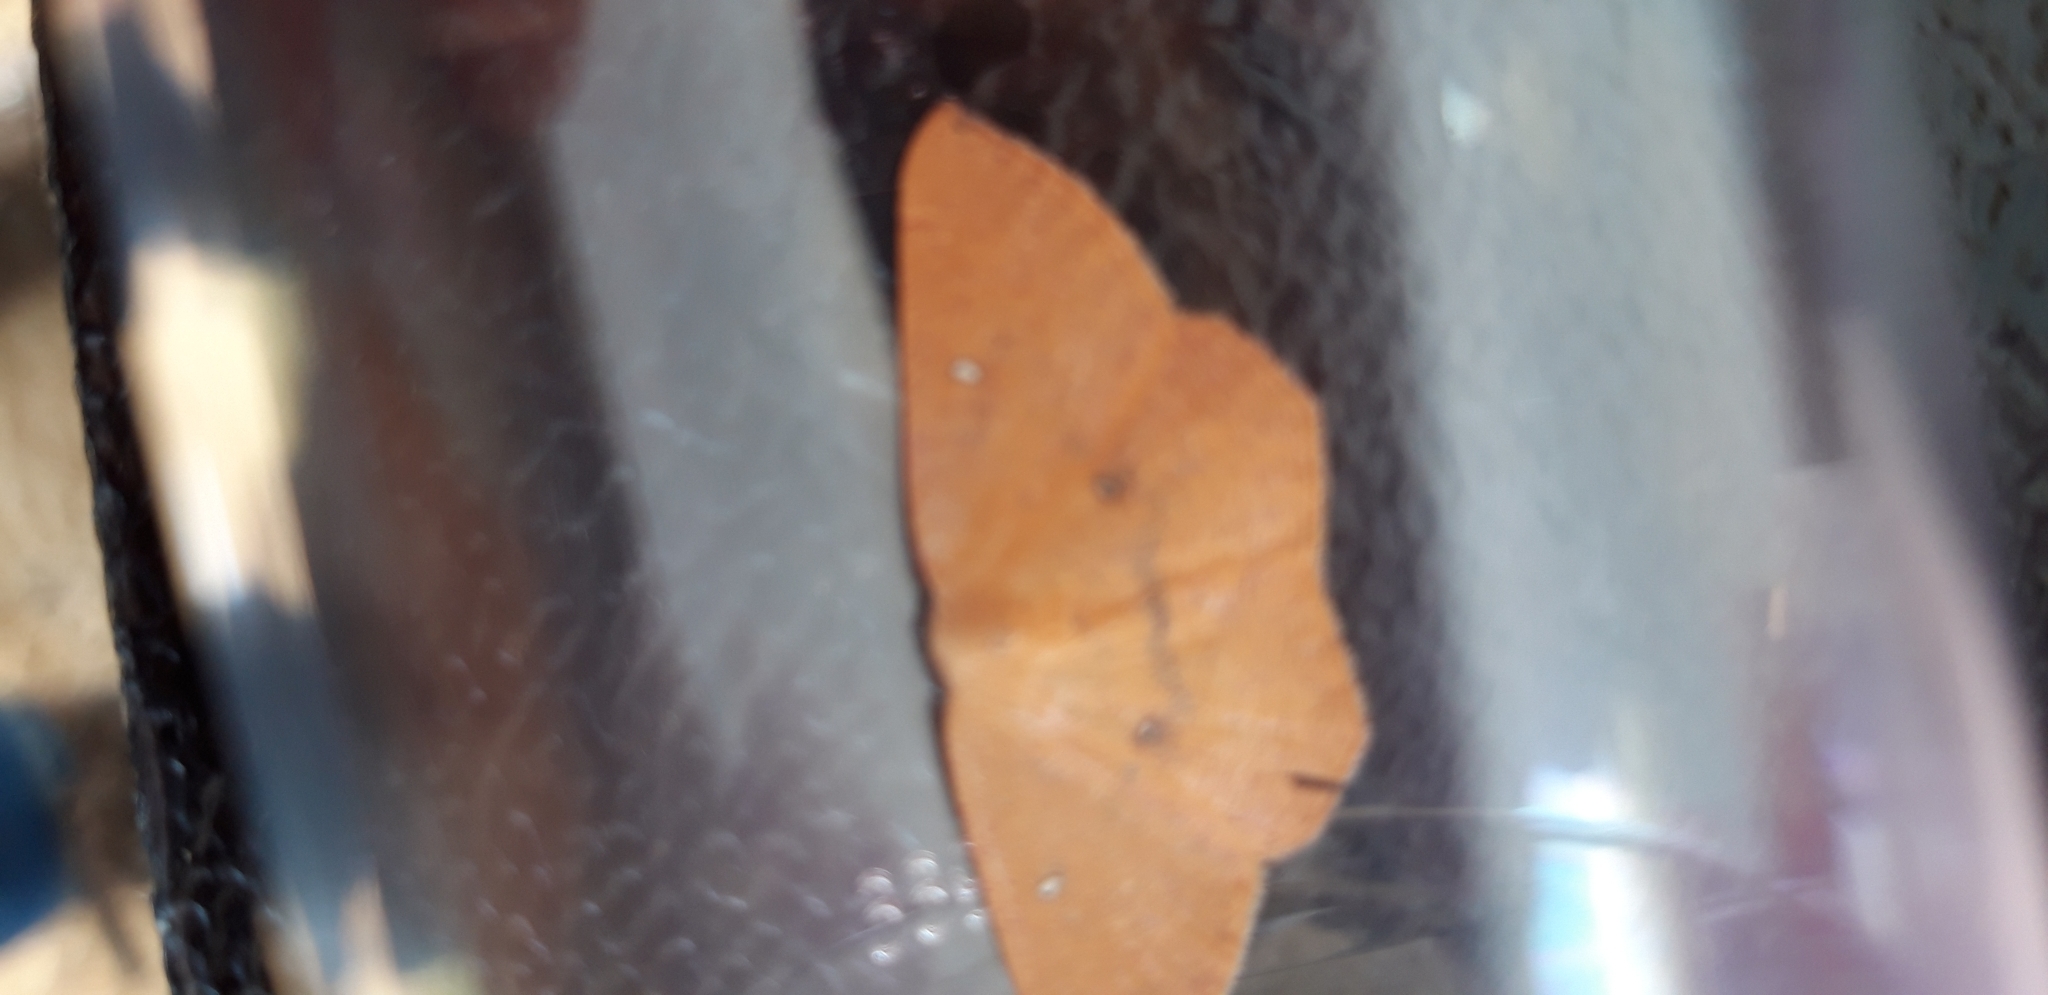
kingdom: Animalia
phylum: Arthropoda
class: Insecta
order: Lepidoptera
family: Geometridae
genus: Cyclophora
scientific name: Cyclophora puppillaria
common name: Blair's mocha
